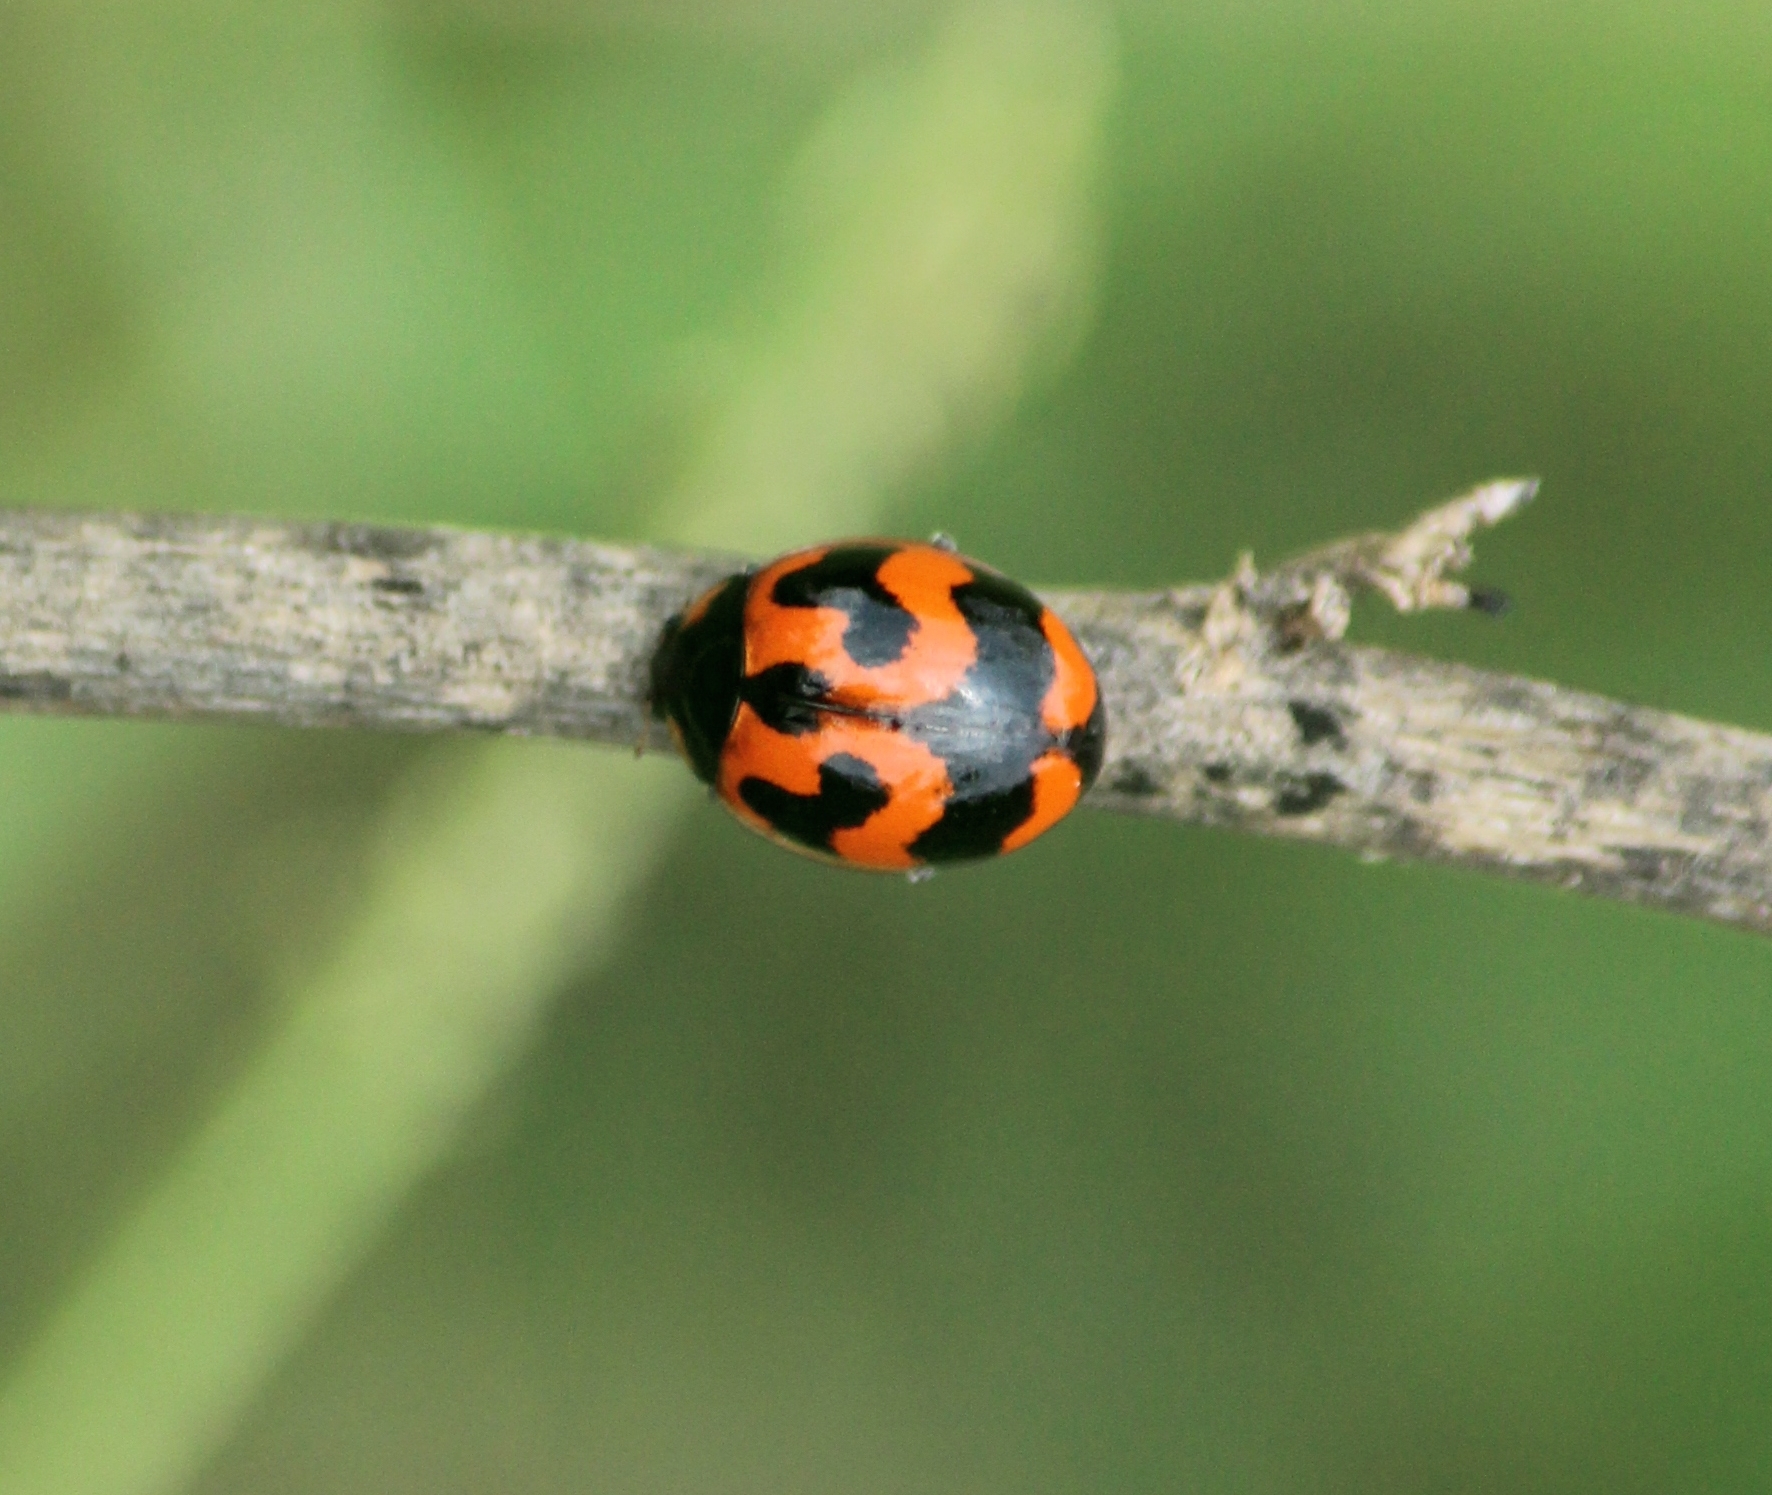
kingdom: Animalia
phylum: Arthropoda
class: Insecta
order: Coleoptera
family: Coccinellidae
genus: Coccinella
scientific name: Coccinella transversalis
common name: Transverse lady beetle
